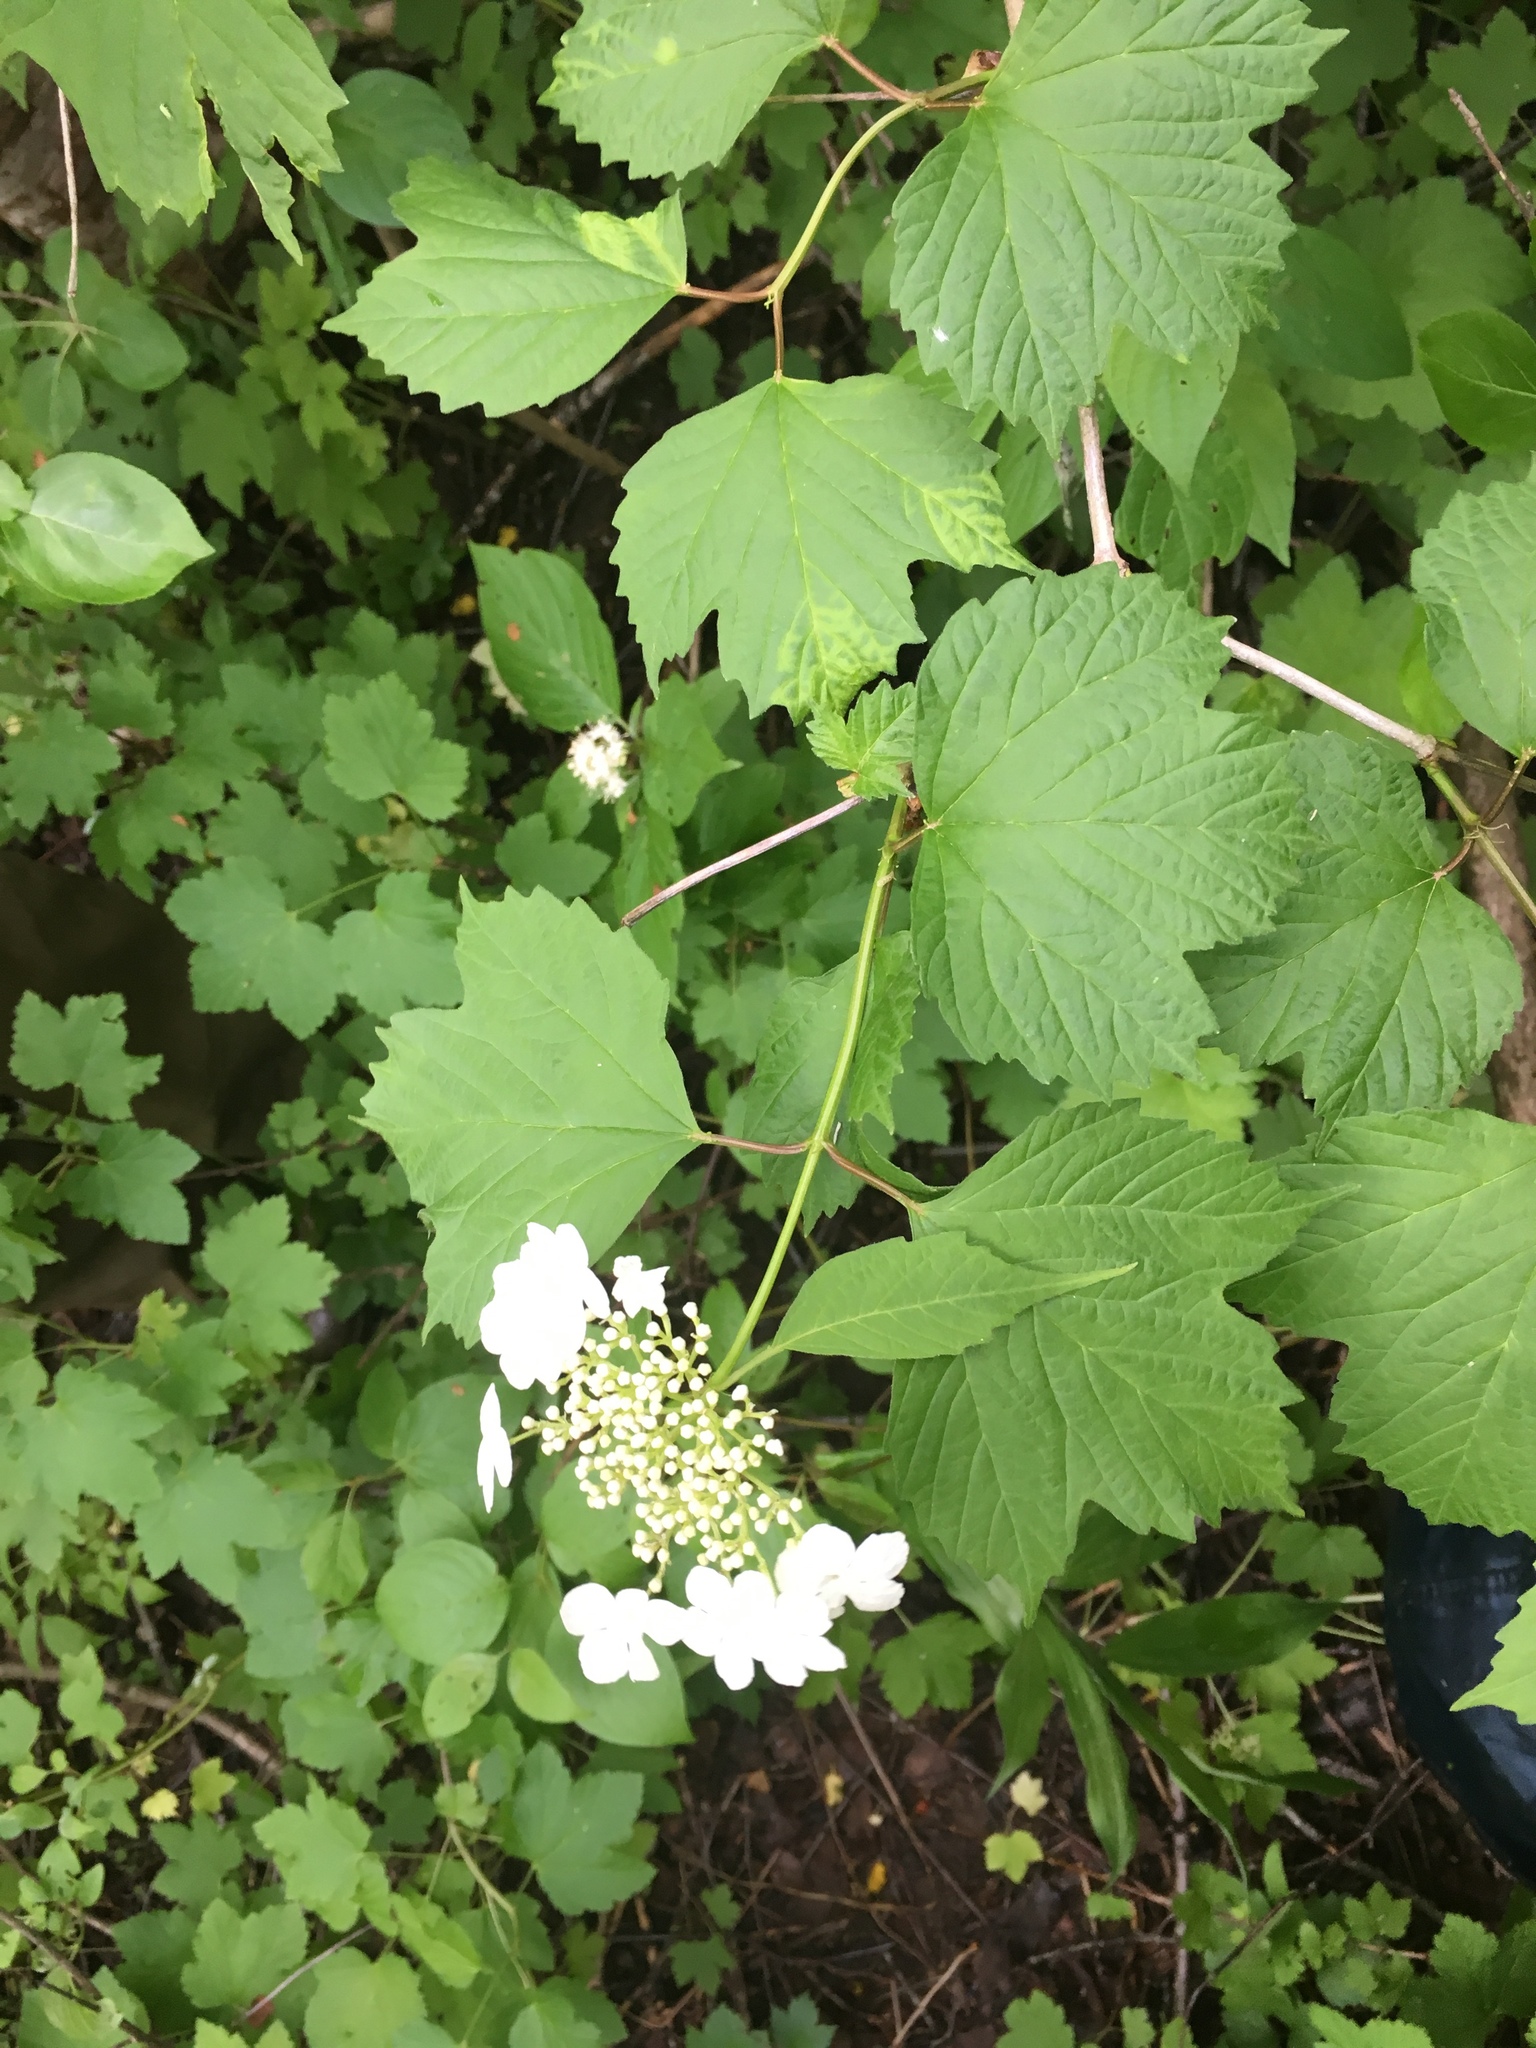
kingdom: Plantae
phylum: Tracheophyta
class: Magnoliopsida
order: Dipsacales
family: Viburnaceae
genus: Viburnum
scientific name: Viburnum opulus
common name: Guelder-rose
